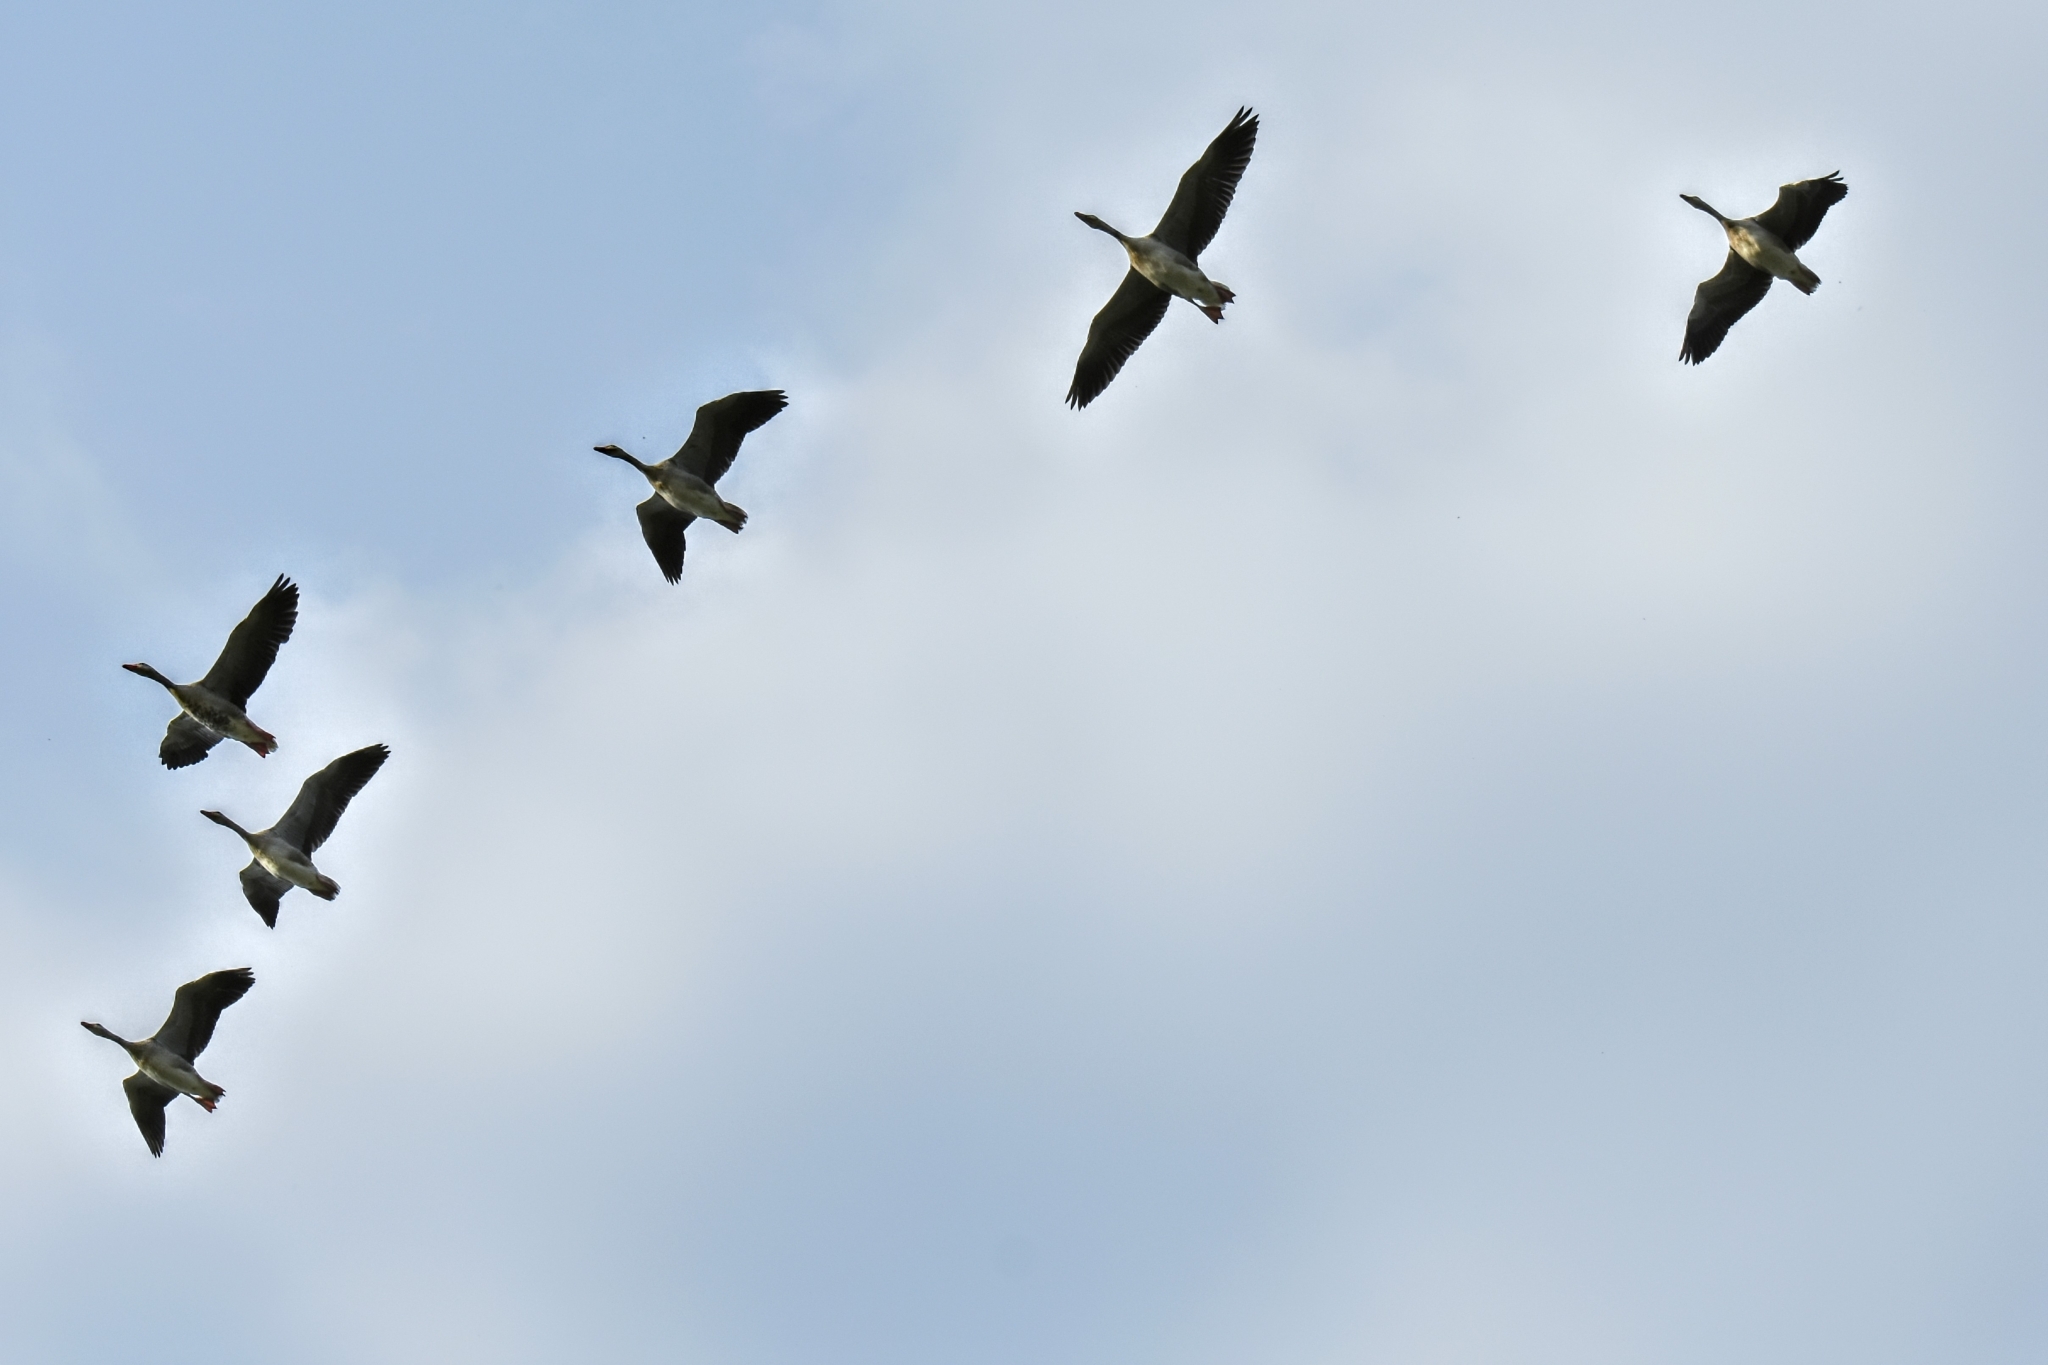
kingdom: Animalia
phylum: Chordata
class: Aves
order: Anseriformes
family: Anatidae
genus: Anser
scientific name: Anser anser
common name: Greylag goose
